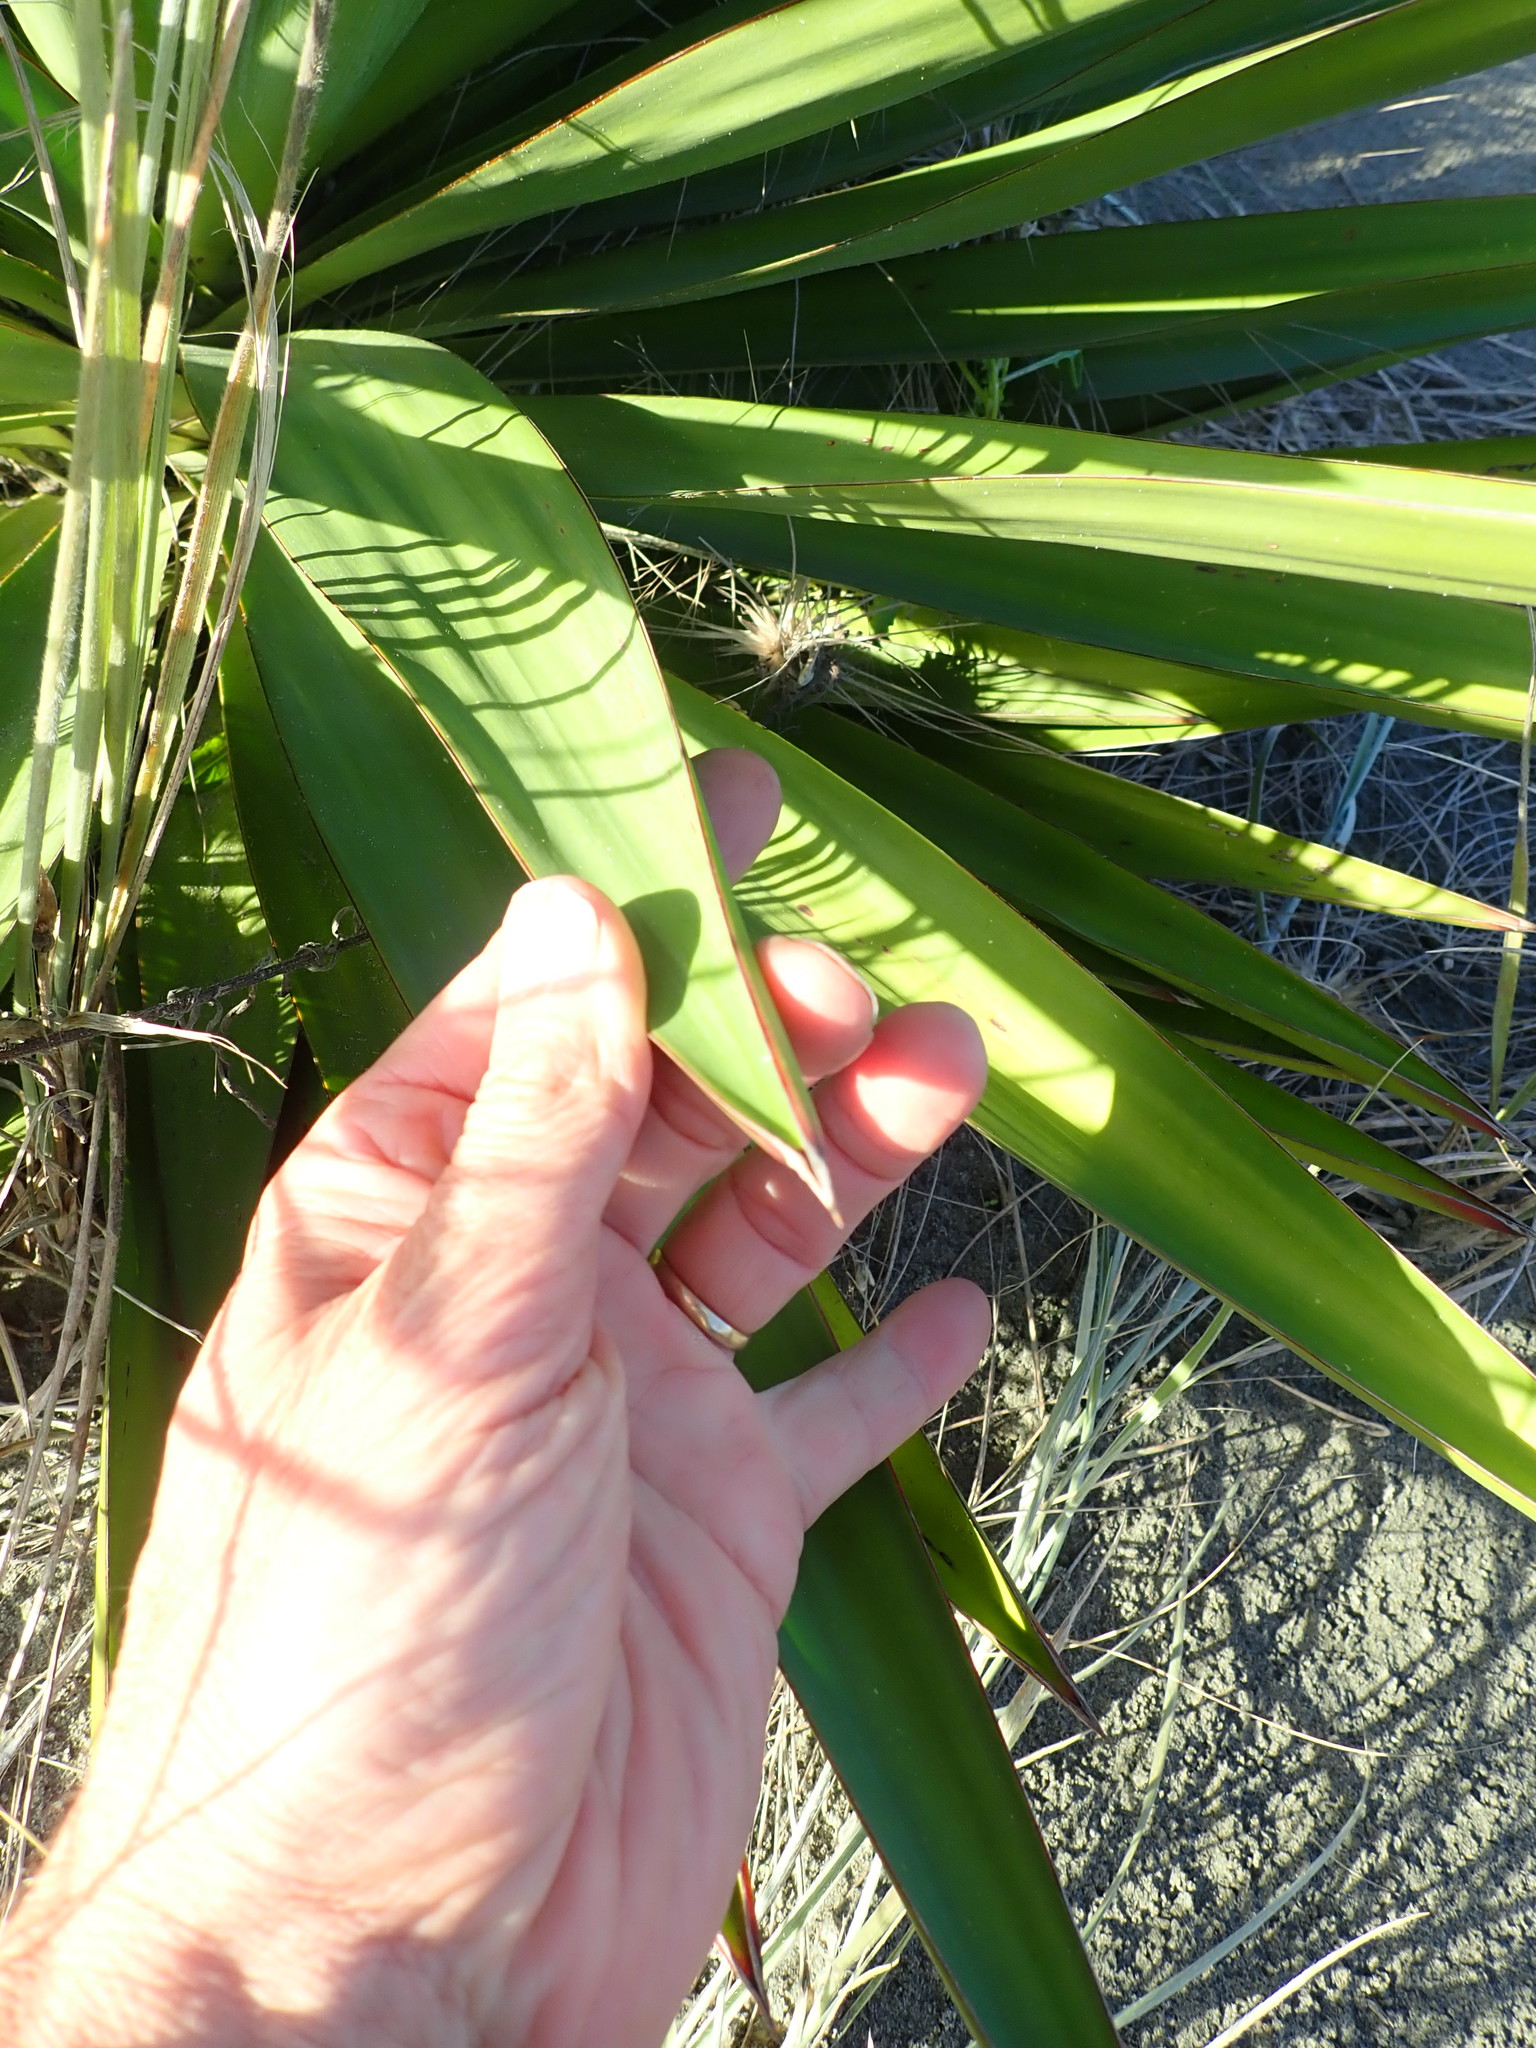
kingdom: Plantae
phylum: Tracheophyta
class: Liliopsida
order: Asparagales
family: Asparagaceae
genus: Yucca
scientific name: Yucca gloriosa
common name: Spanish-dagger
